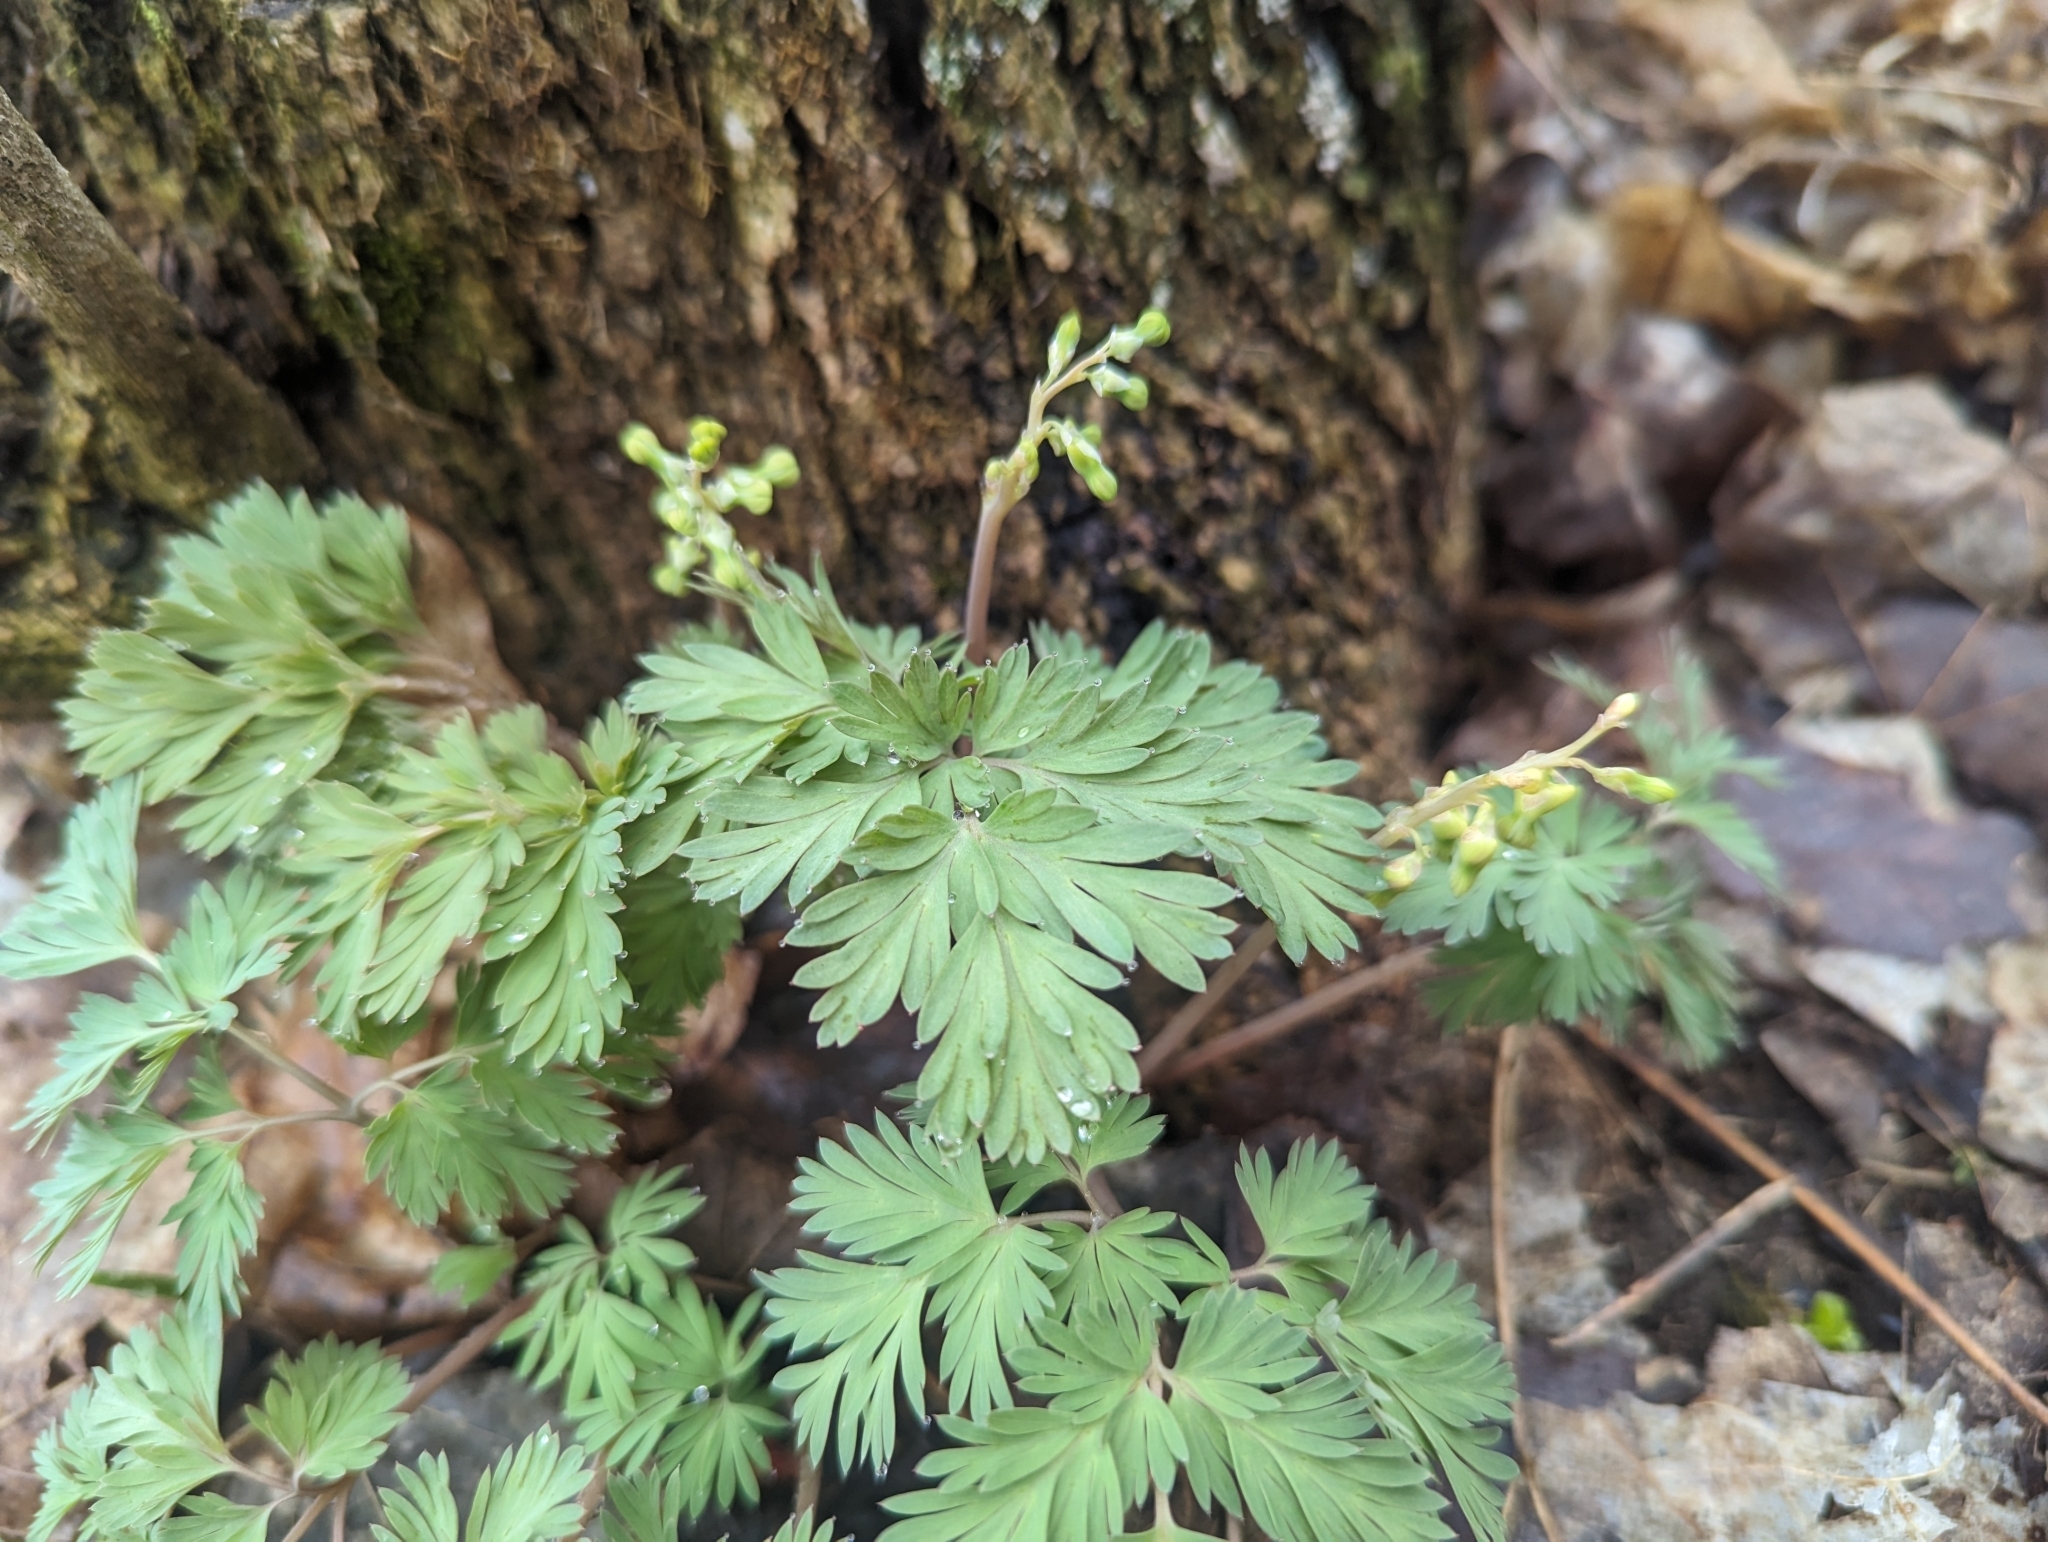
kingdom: Plantae
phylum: Tracheophyta
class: Magnoliopsida
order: Ranunculales
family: Papaveraceae
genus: Dicentra
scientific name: Dicentra cucullaria
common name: Dutchman's breeches
